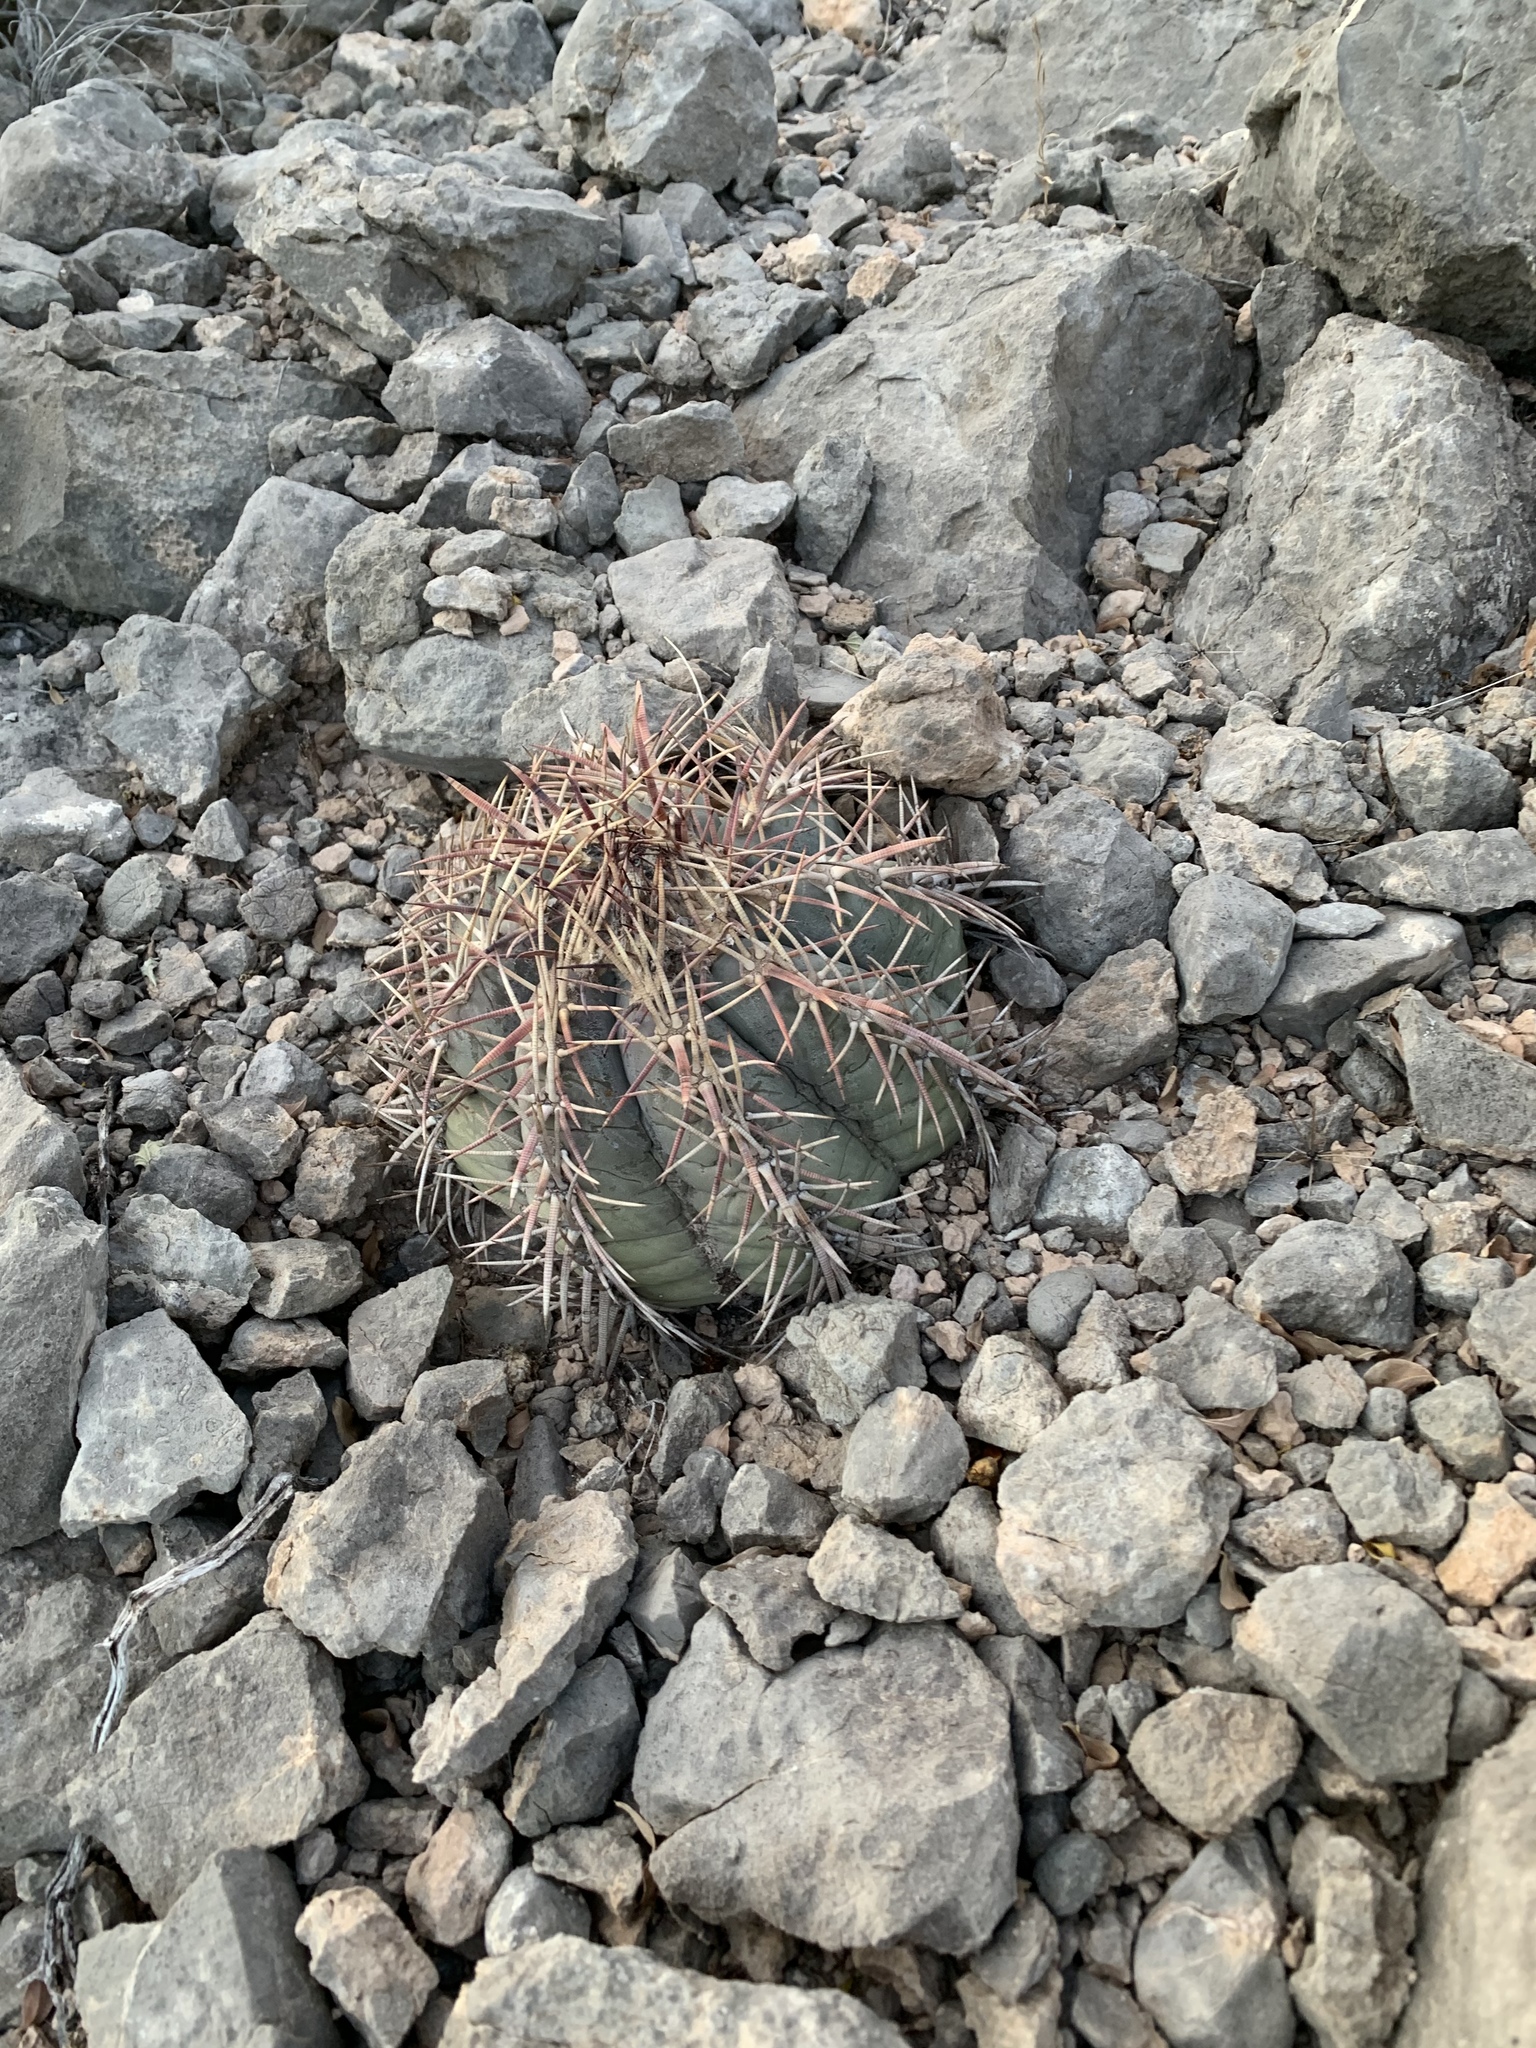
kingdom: Plantae
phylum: Tracheophyta
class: Magnoliopsida
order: Caryophyllales
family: Cactaceae
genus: Echinocactus
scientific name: Echinocactus horizonthalonius
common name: Devilshead
